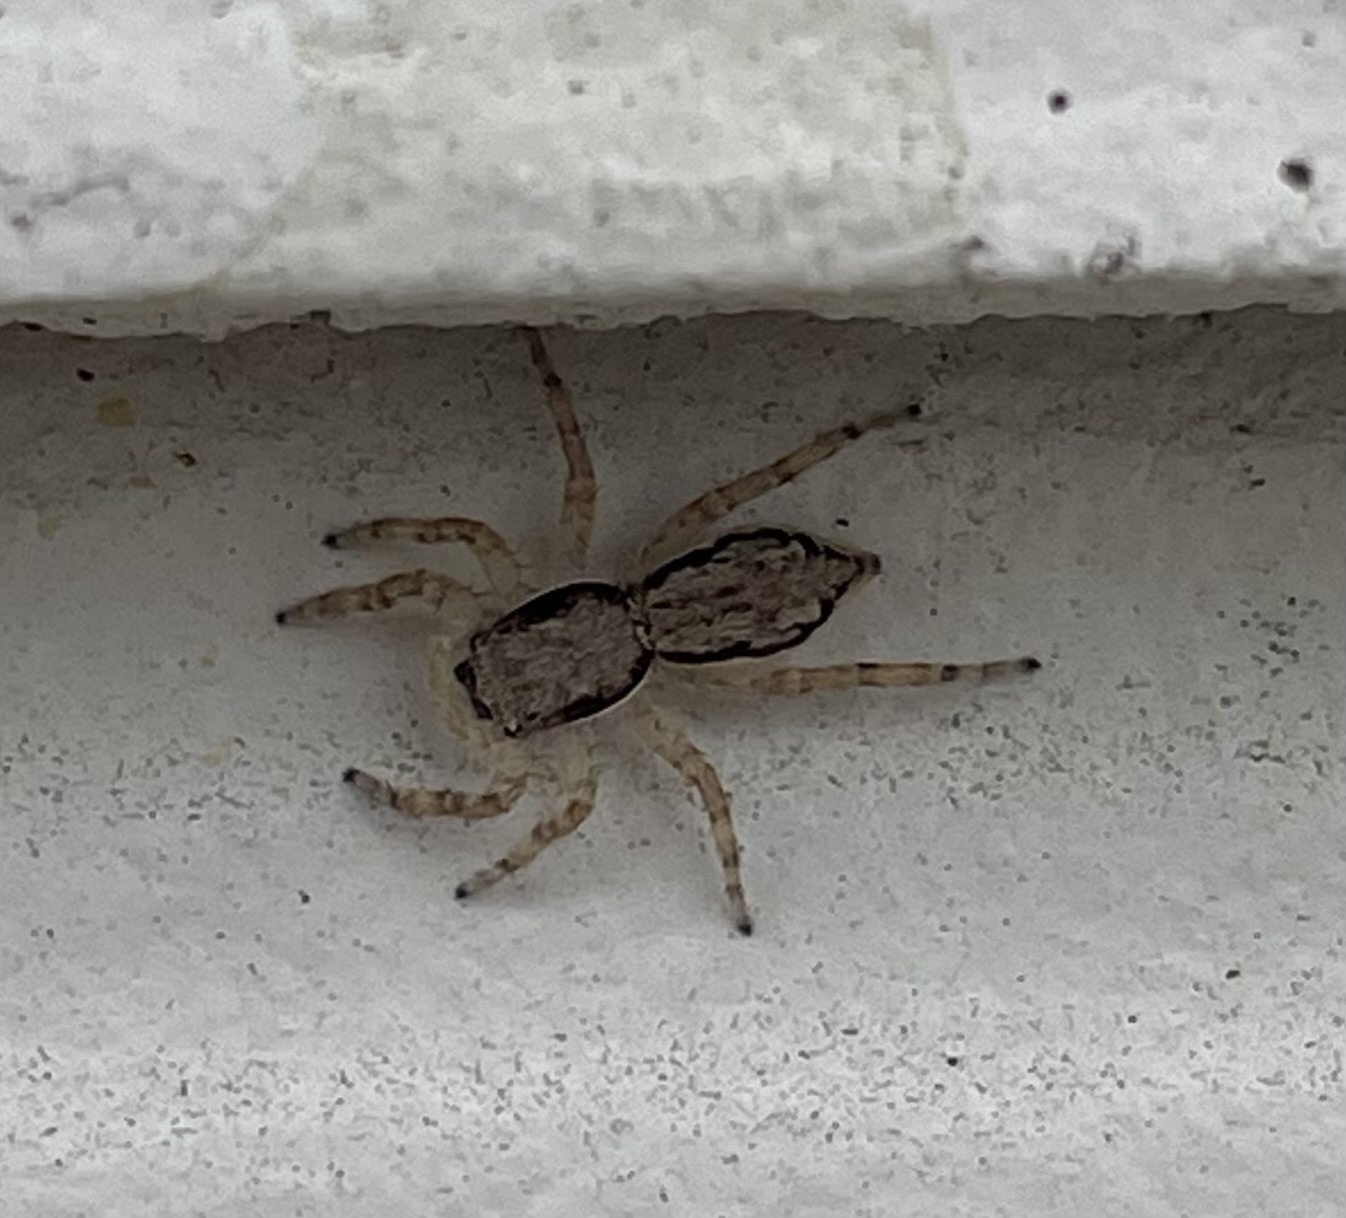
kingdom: Animalia
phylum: Arthropoda
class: Arachnida
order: Araneae
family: Salticidae
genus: Menemerus
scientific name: Menemerus bivittatus
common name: Gray wall jumper
